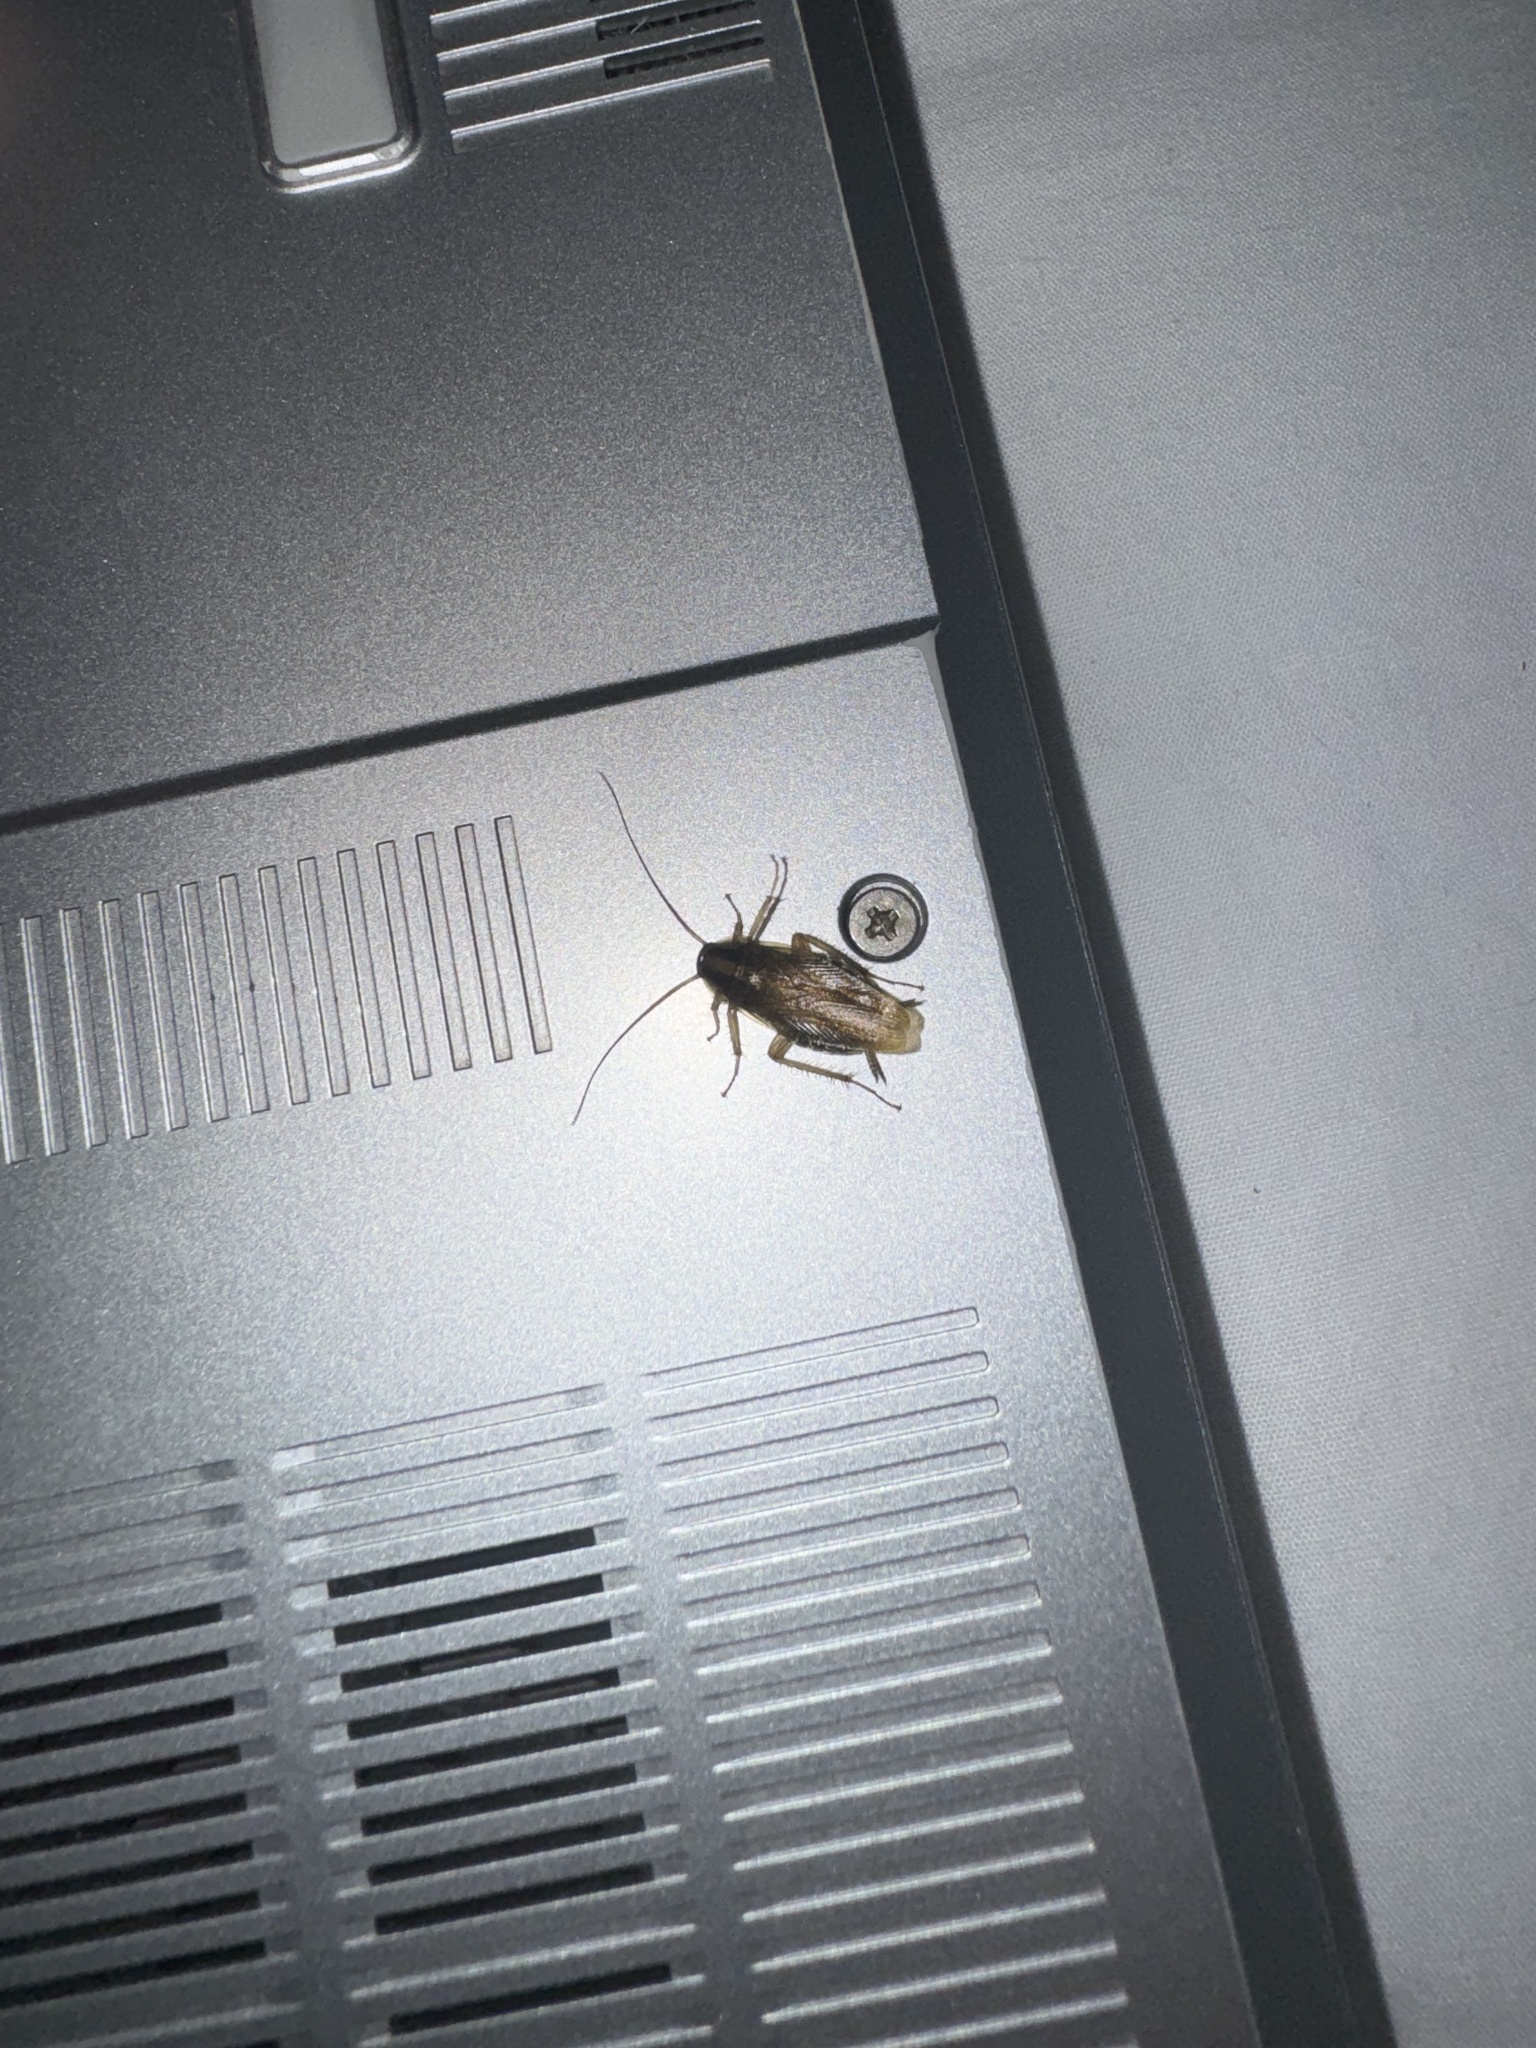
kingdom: Animalia
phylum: Arthropoda
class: Insecta
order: Blattodea
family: Ectobiidae
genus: Blattella
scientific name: Blattella germanica
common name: German cockroach
